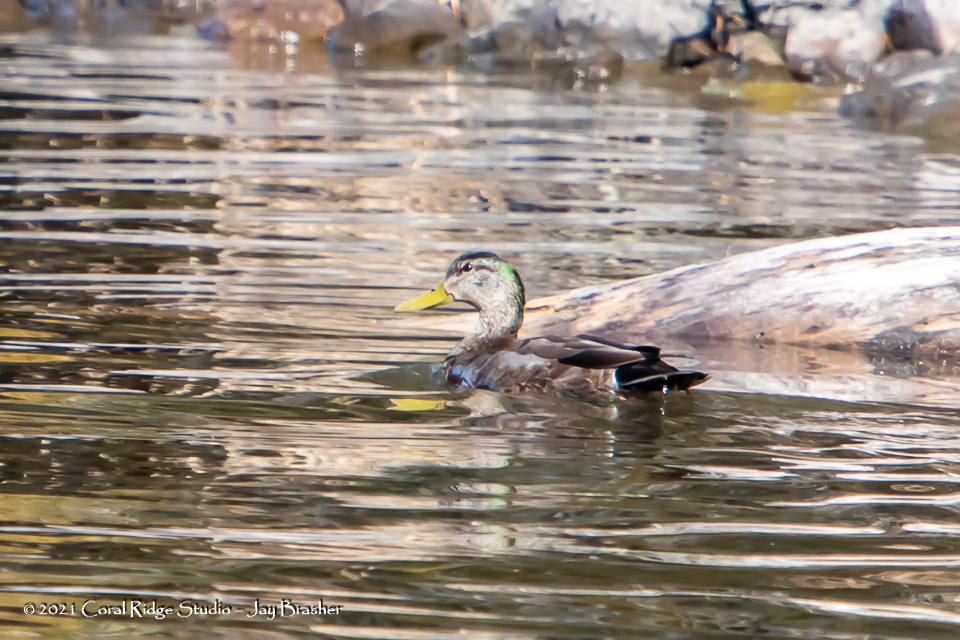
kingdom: Animalia
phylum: Chordata
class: Aves
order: Anseriformes
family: Anatidae
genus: Anas
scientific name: Anas
